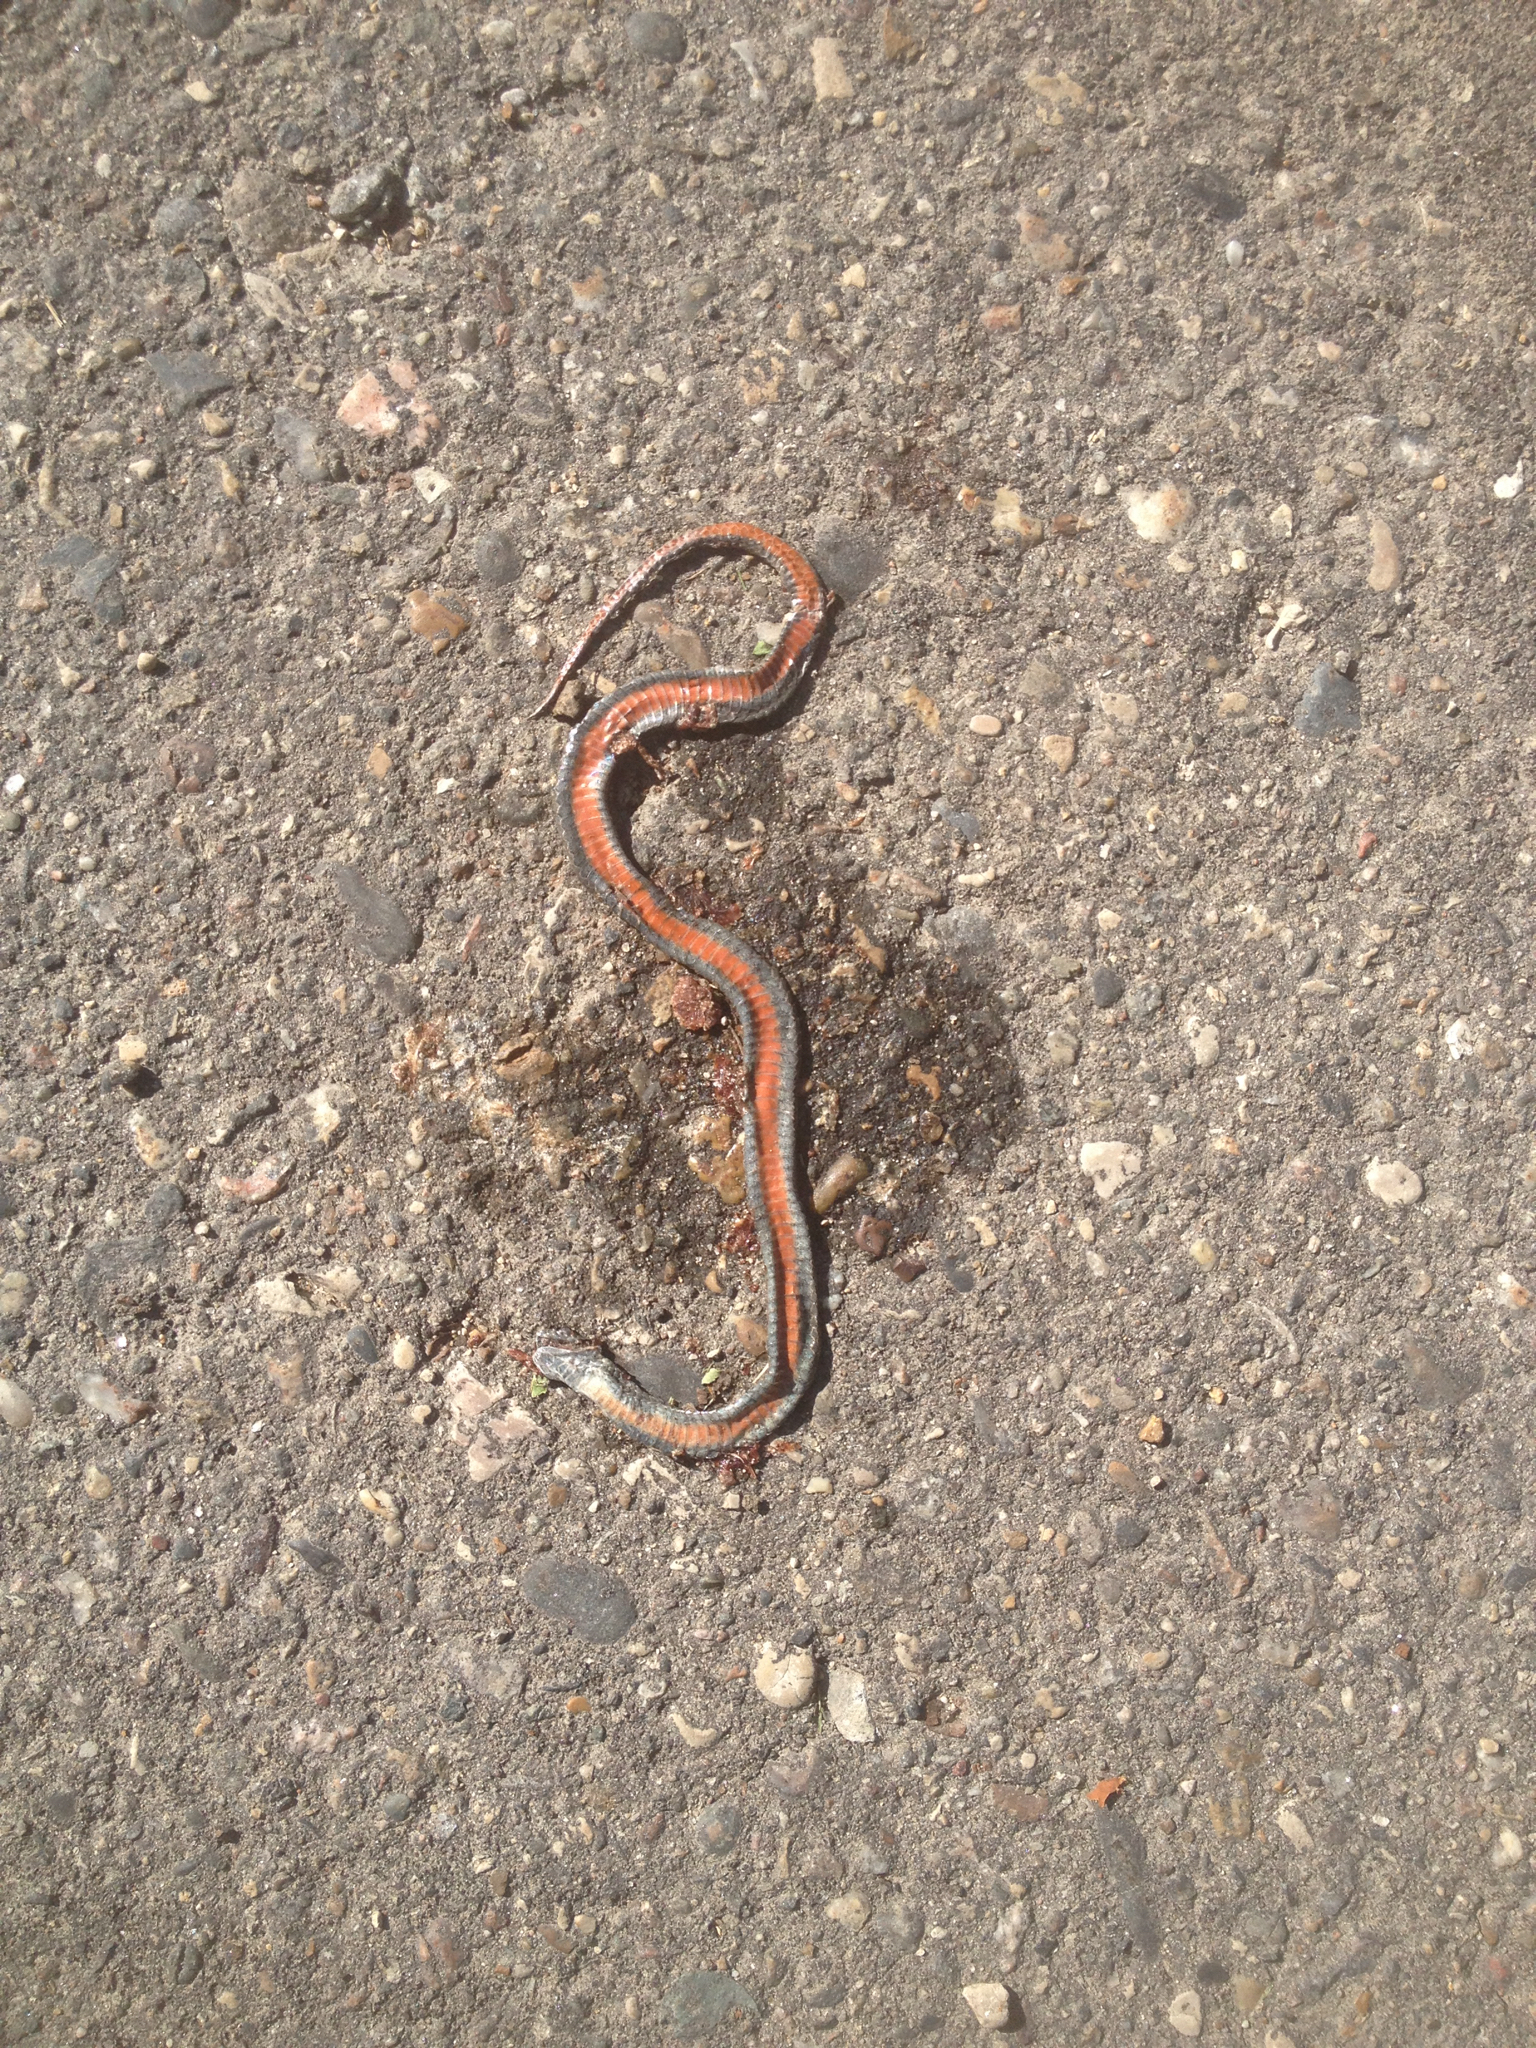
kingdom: Animalia
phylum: Chordata
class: Squamata
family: Colubridae
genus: Storeria
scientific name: Storeria occipitomaculata
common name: Redbelly snake
